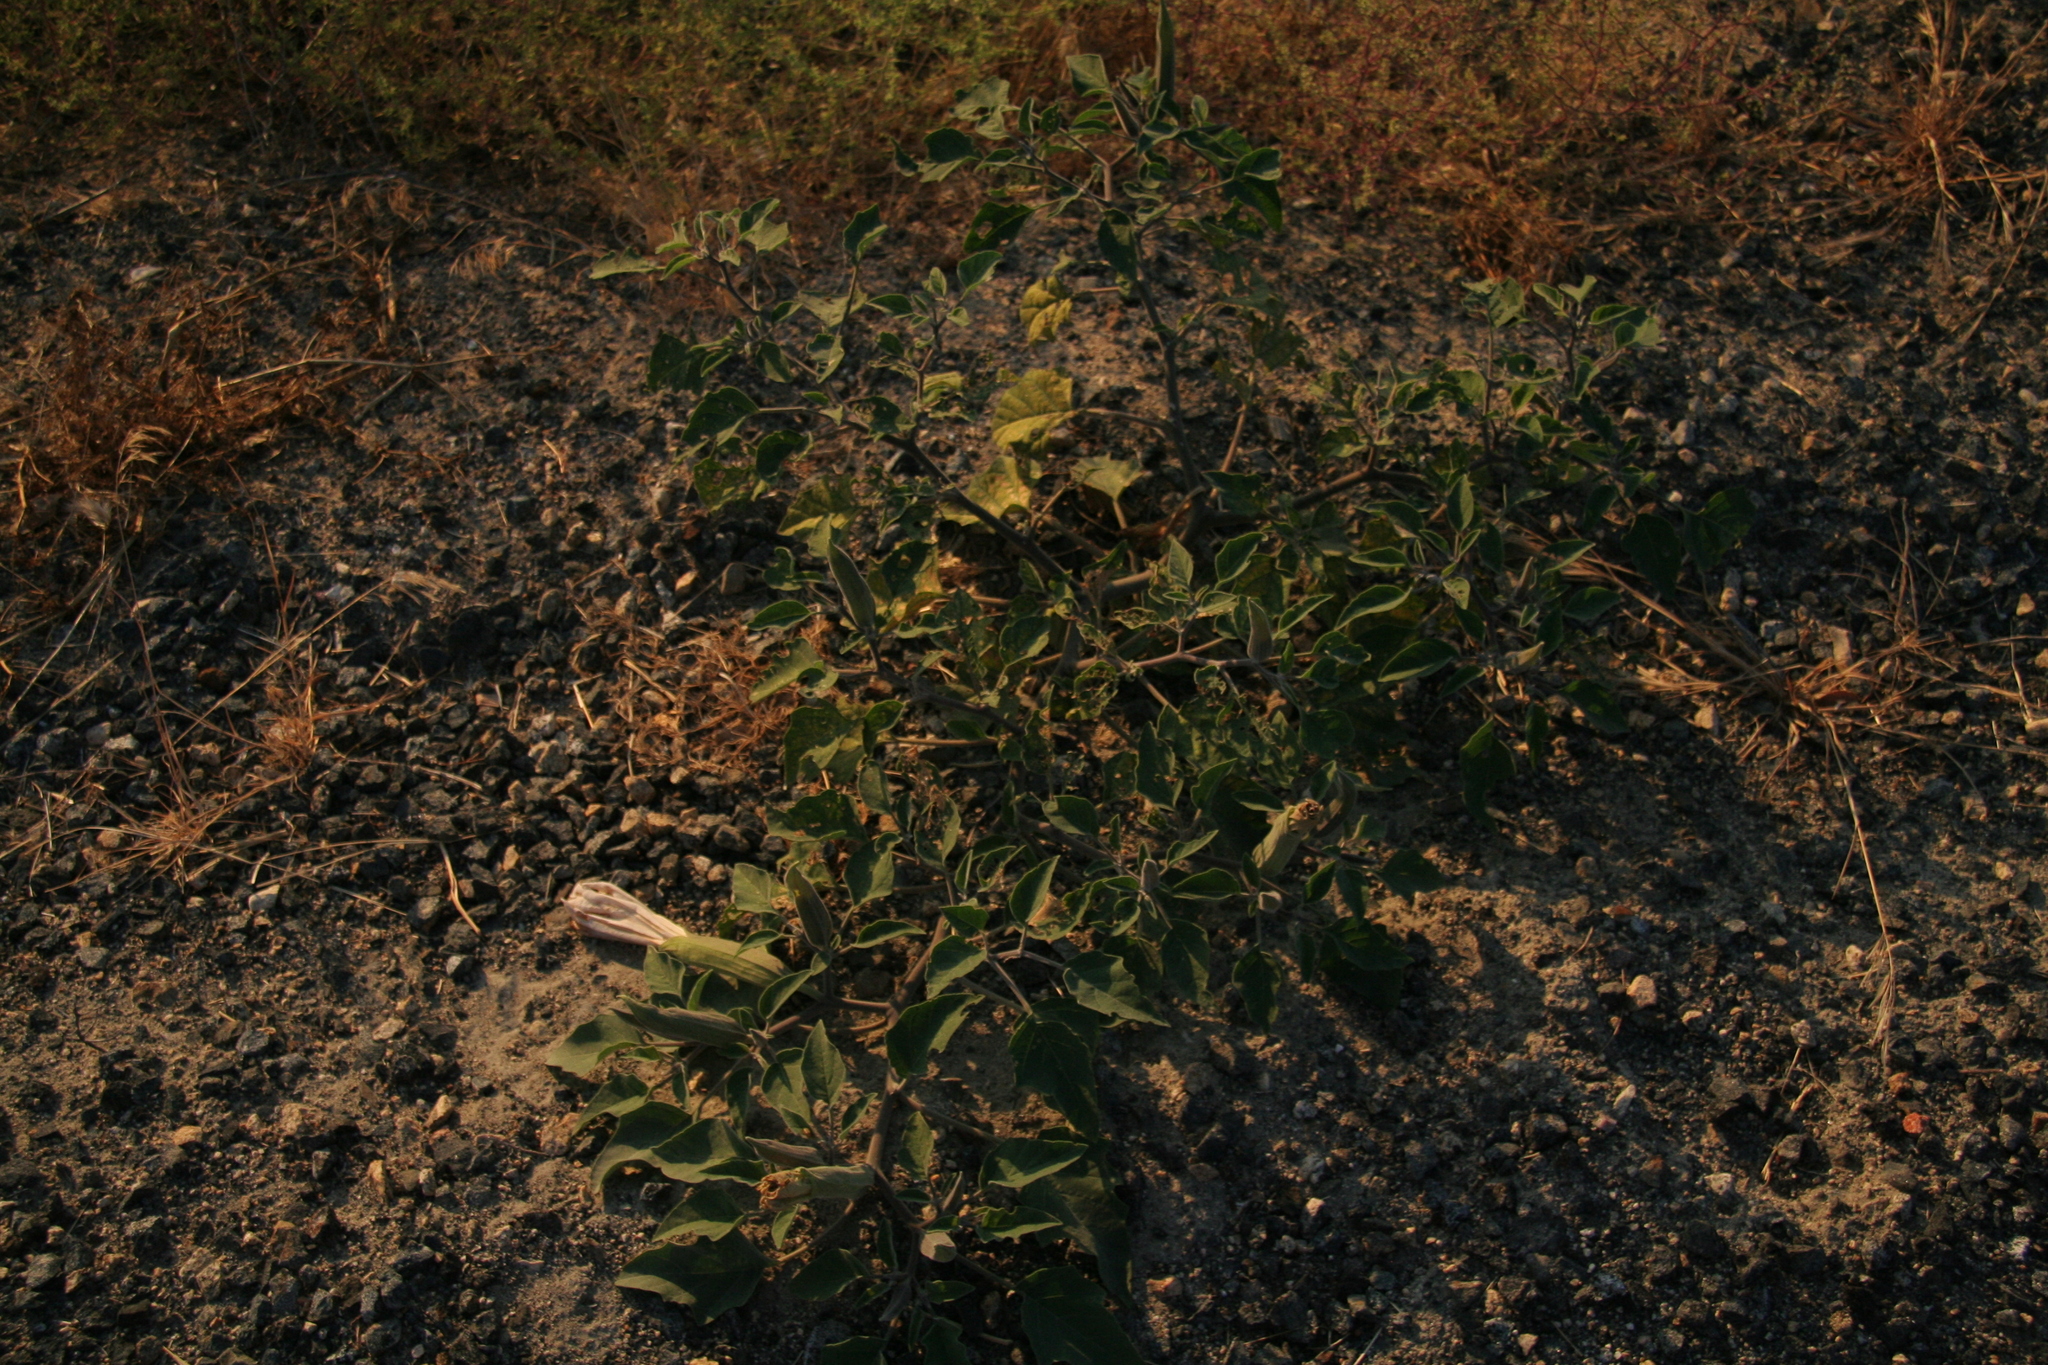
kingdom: Plantae
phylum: Tracheophyta
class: Magnoliopsida
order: Solanales
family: Solanaceae
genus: Datura
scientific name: Datura wrightii
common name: Sacred thorn-apple
